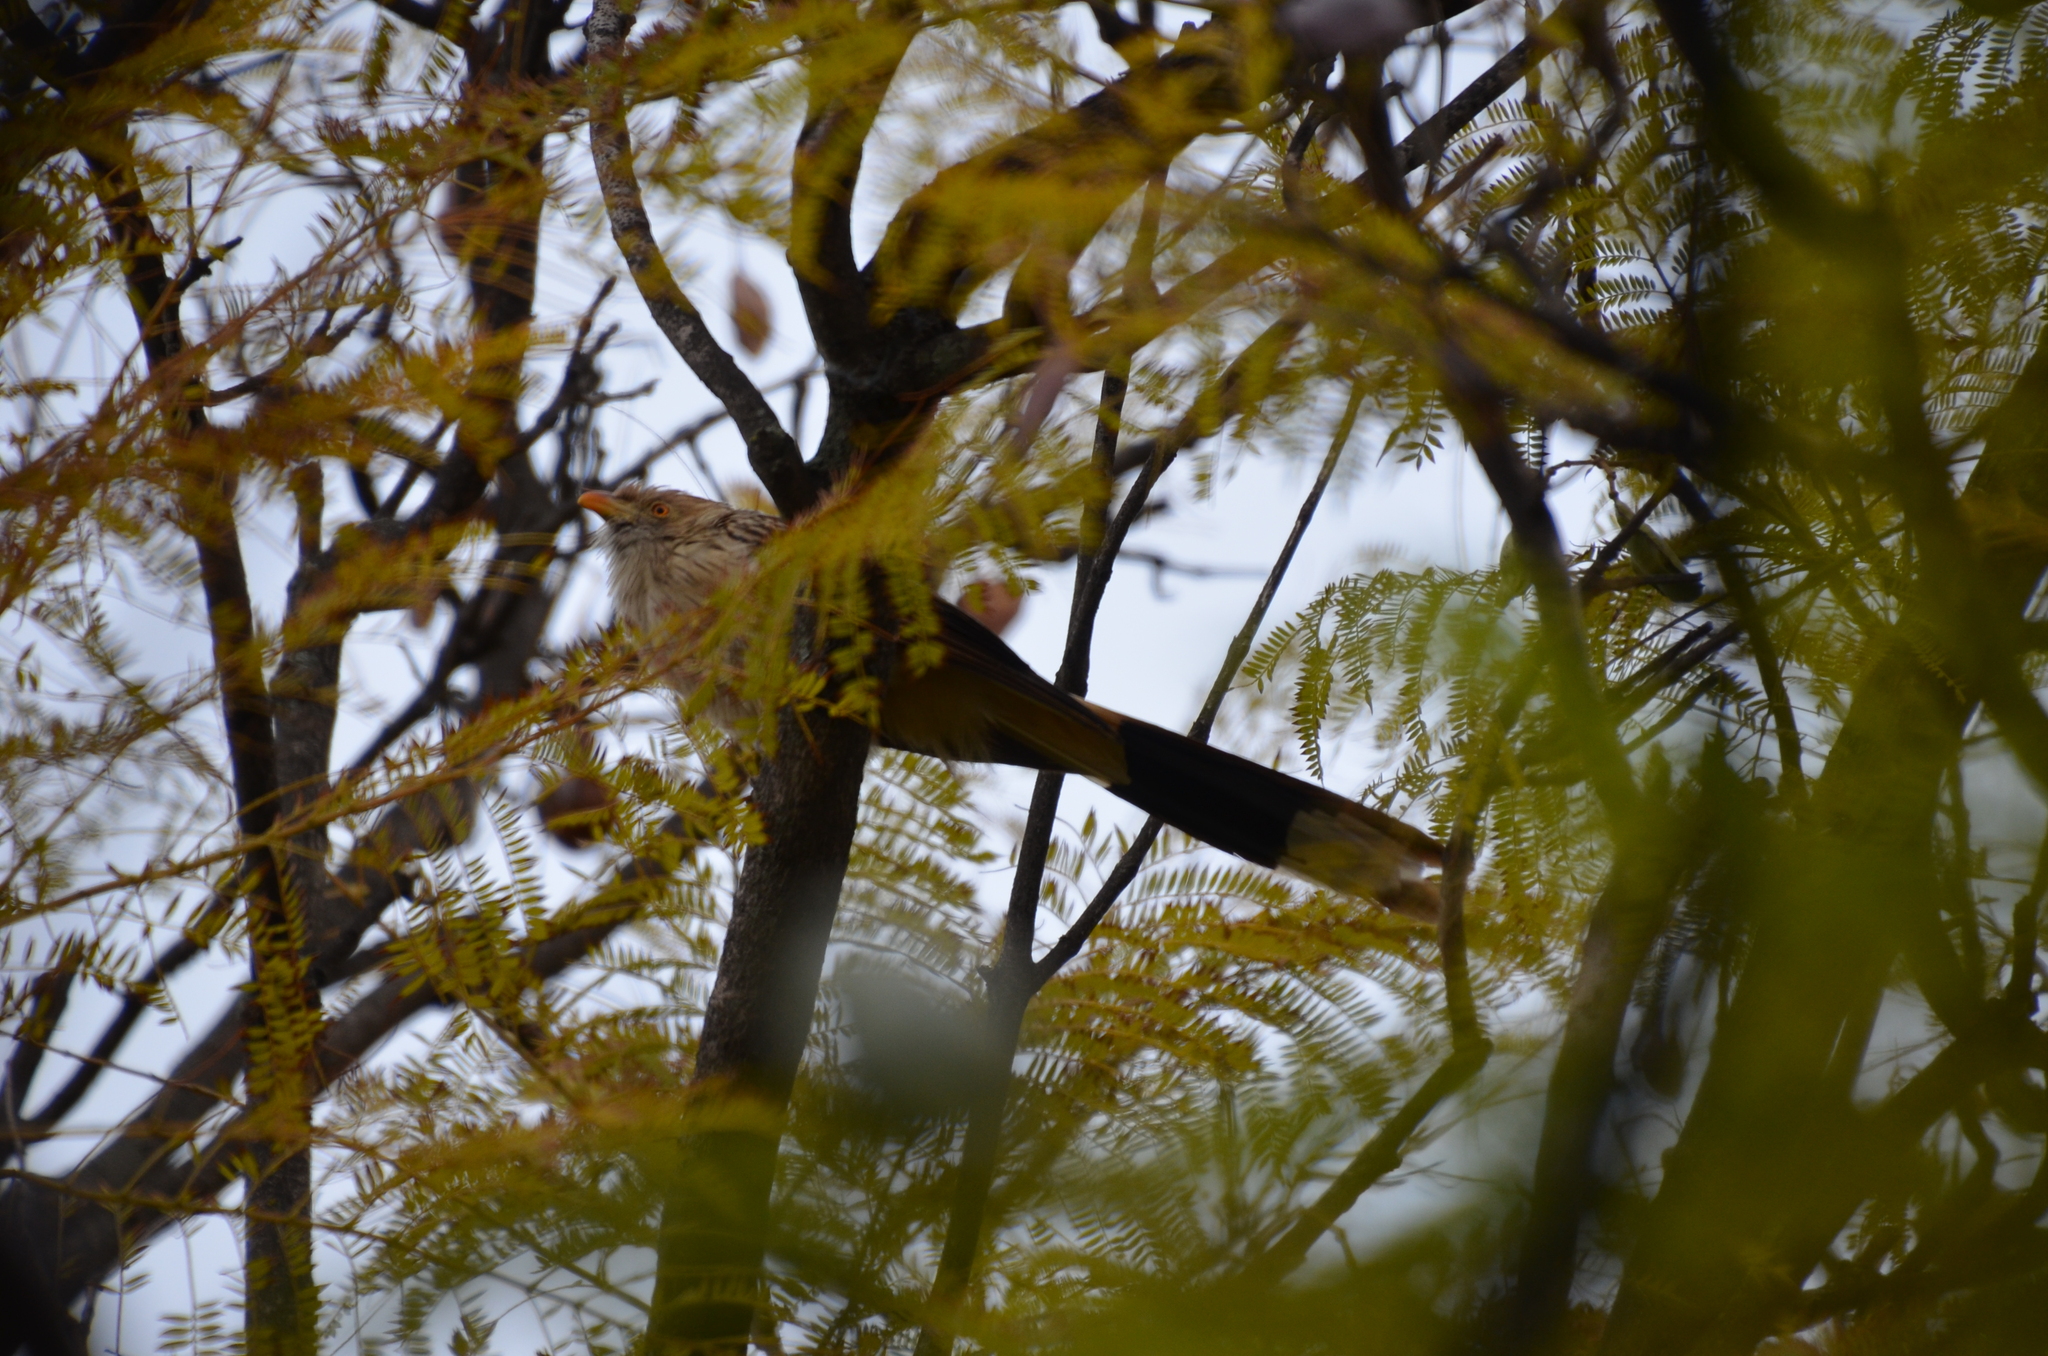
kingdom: Animalia
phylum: Chordata
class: Aves
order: Cuculiformes
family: Cuculidae
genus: Guira
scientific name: Guira guira
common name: Guira cuckoo
